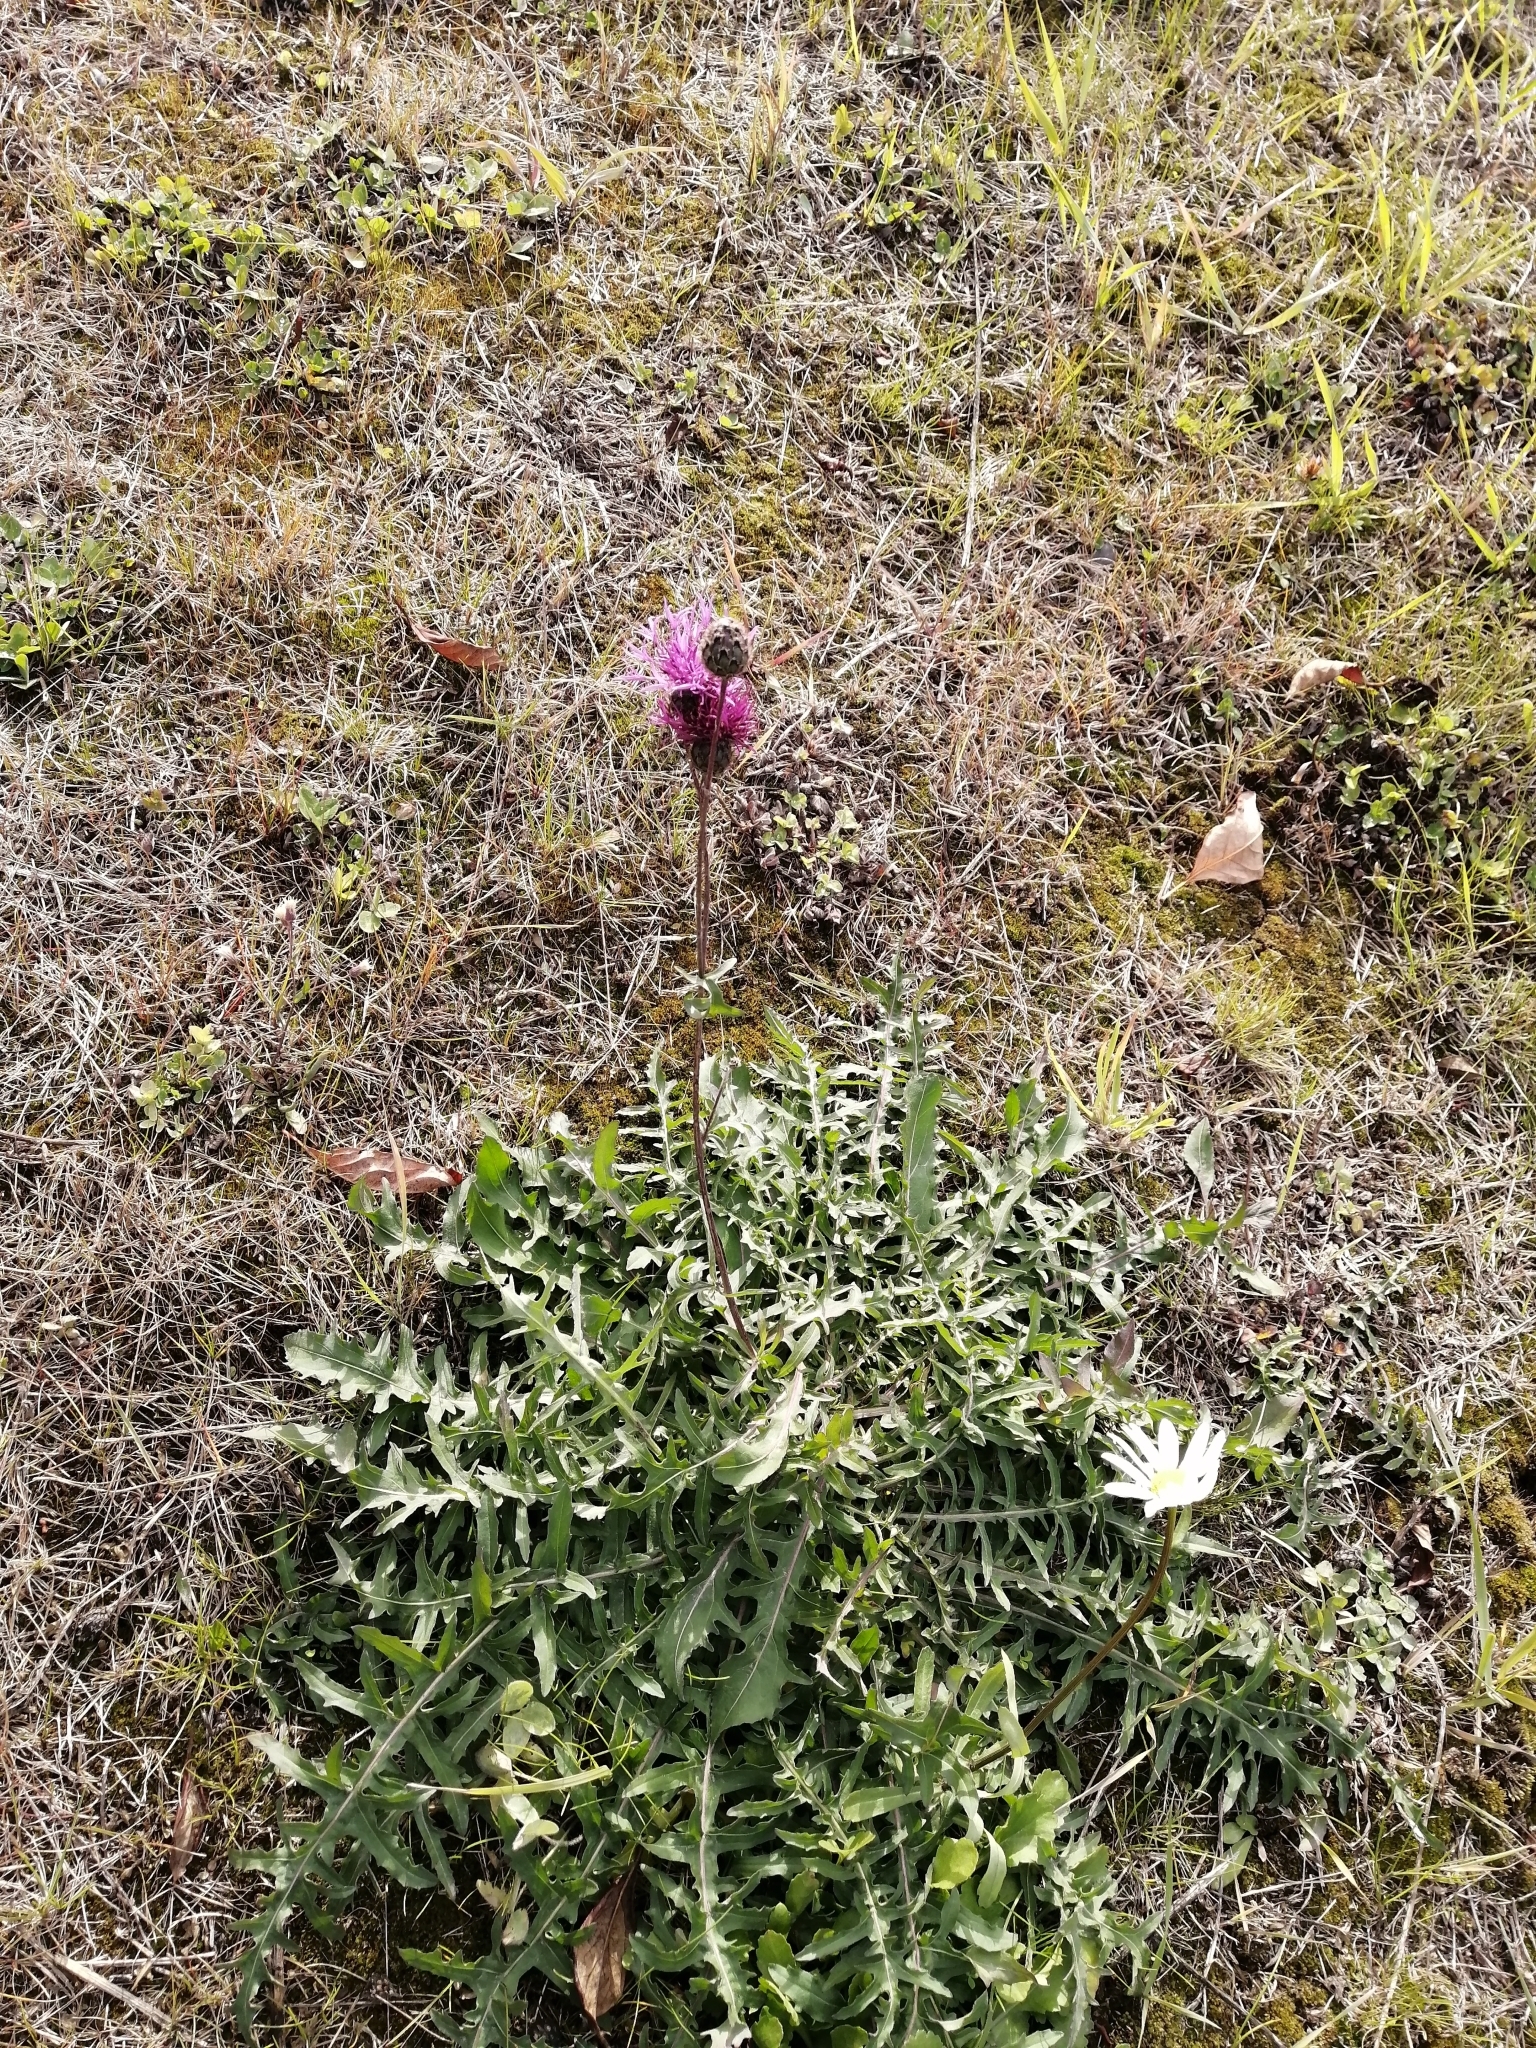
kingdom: Plantae
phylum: Tracheophyta
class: Magnoliopsida
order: Asterales
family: Asteraceae
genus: Centaurea
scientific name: Centaurea scabiosa
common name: Greater knapweed
